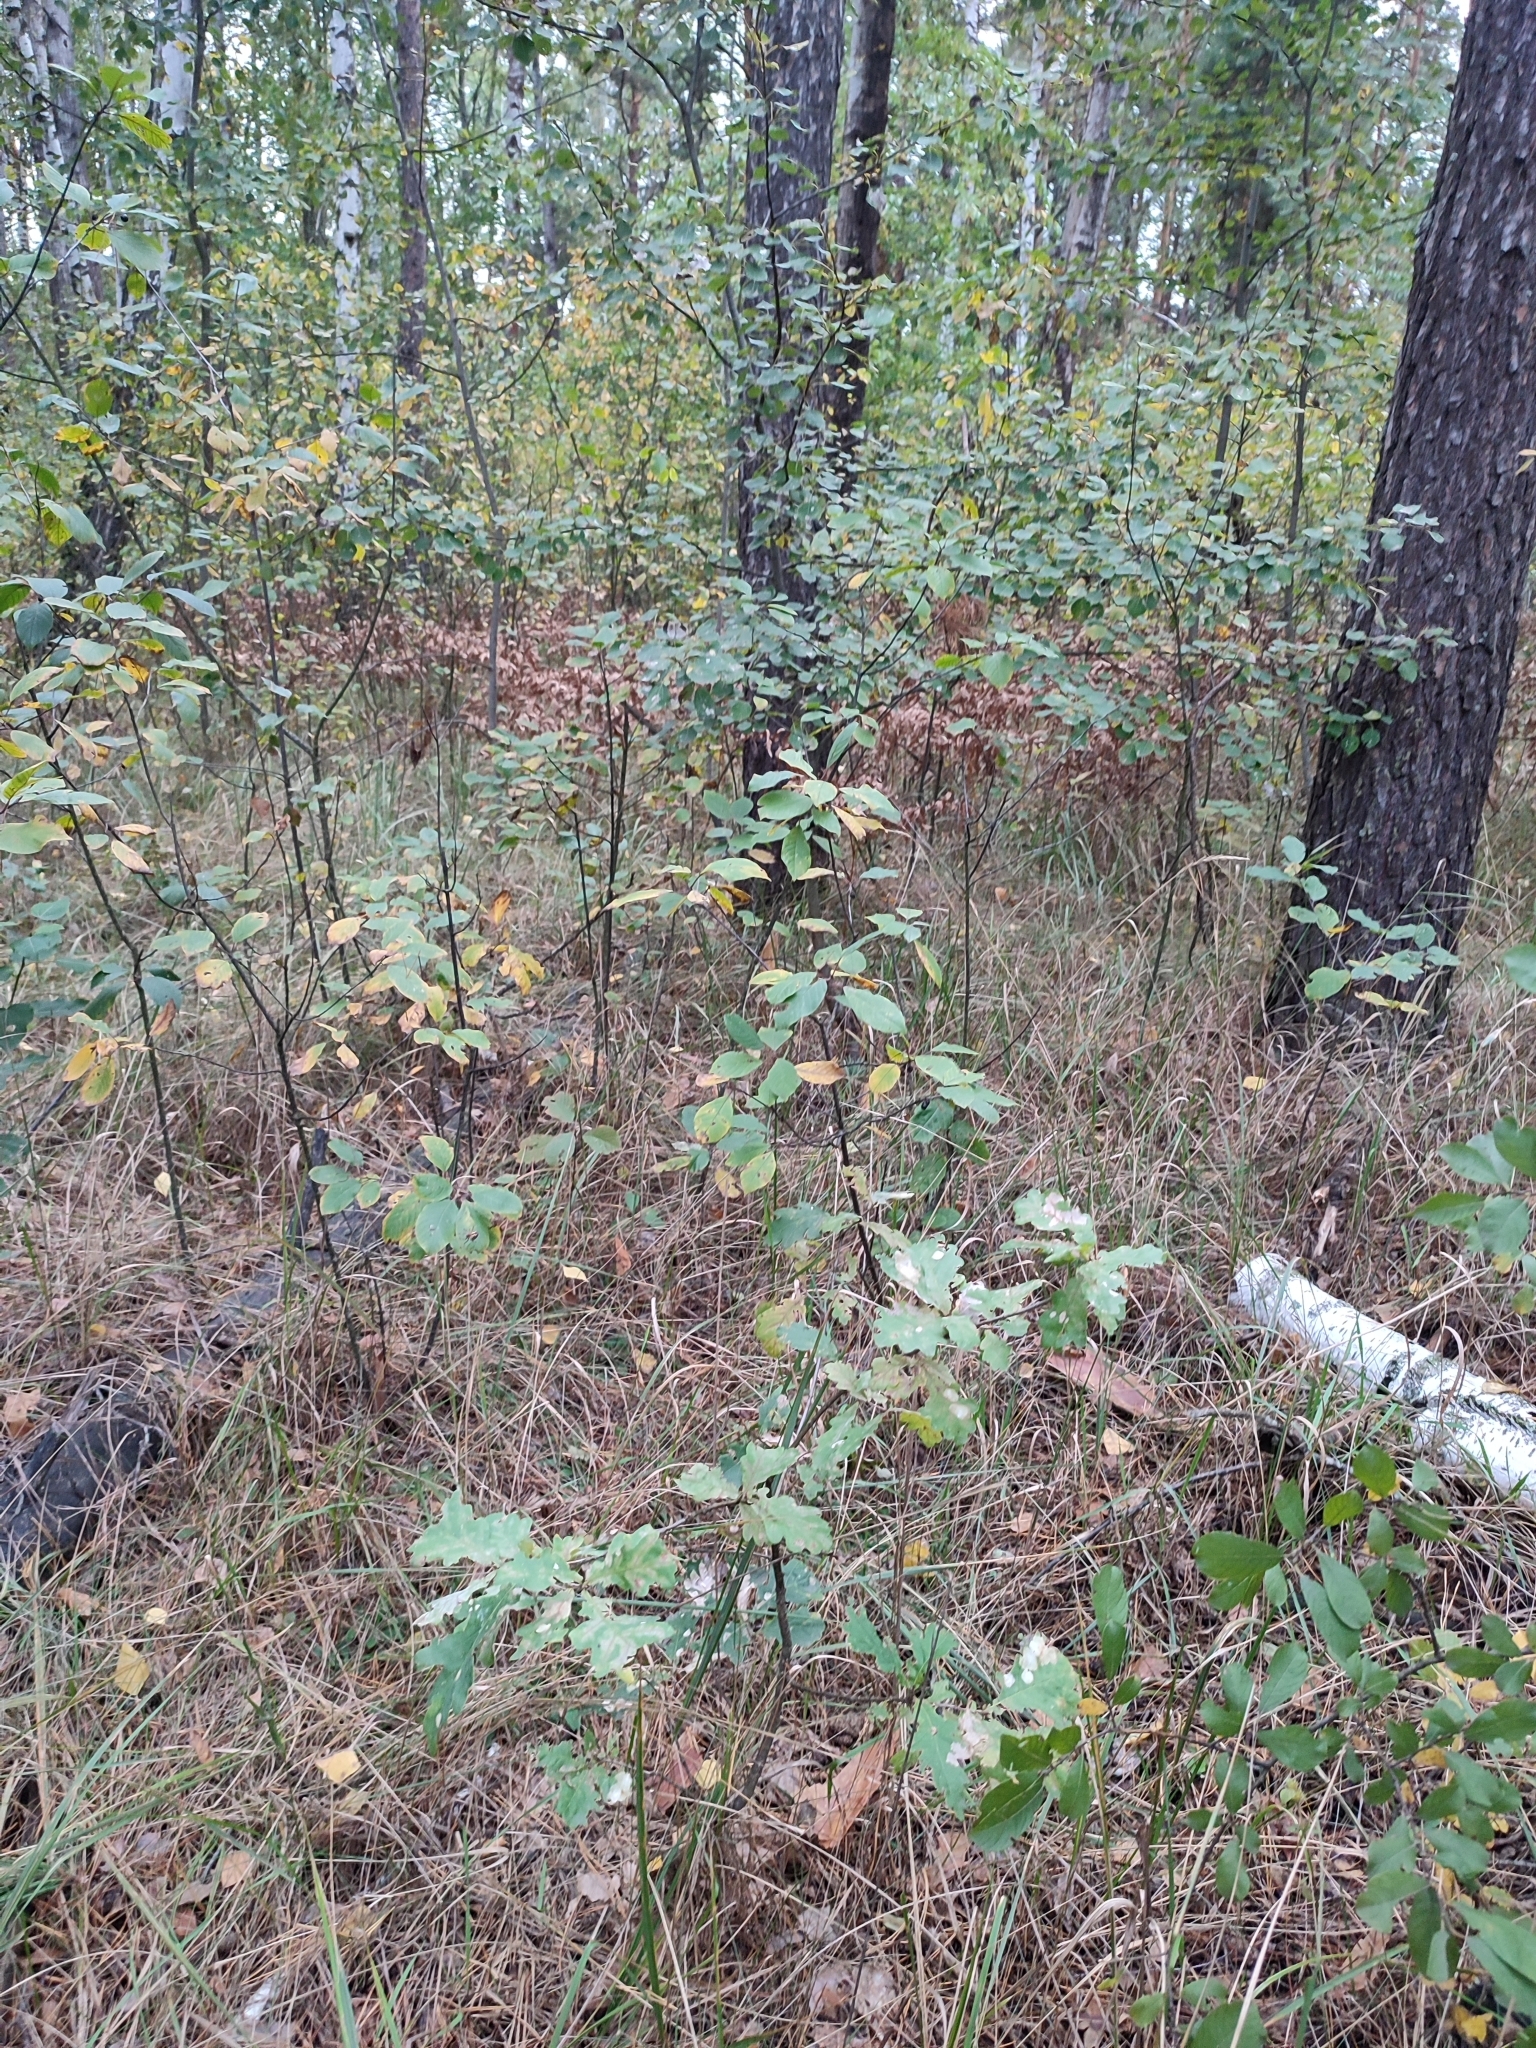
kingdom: Plantae
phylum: Tracheophyta
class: Magnoliopsida
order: Fagales
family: Fagaceae
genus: Quercus
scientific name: Quercus robur
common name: Pedunculate oak
